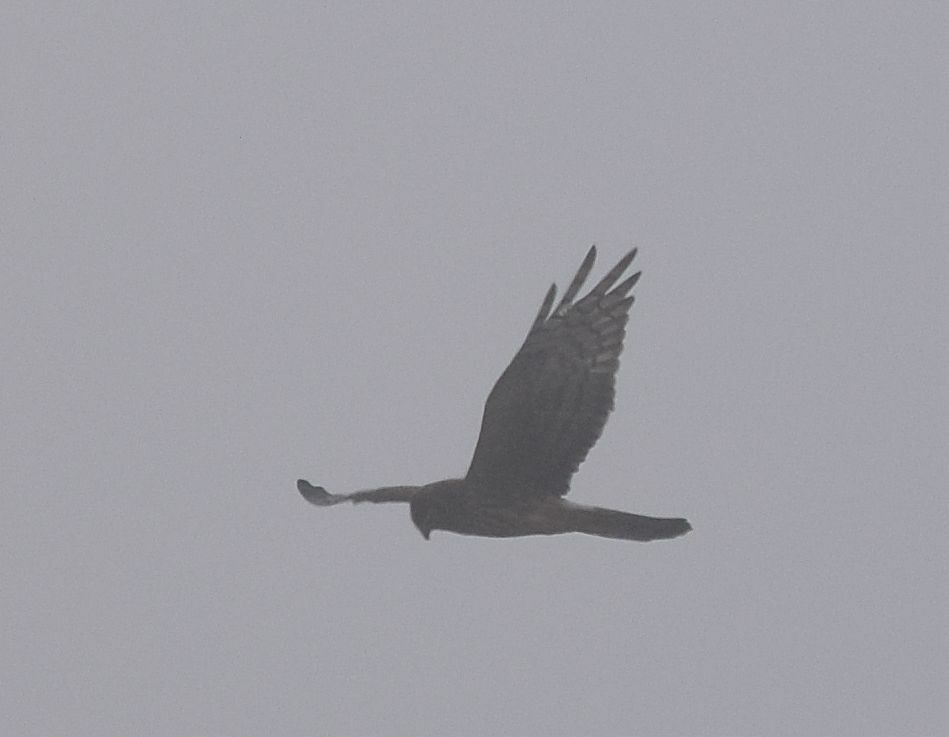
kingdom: Animalia
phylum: Chordata
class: Aves
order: Accipitriformes
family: Accipitridae
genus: Circus
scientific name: Circus cyaneus
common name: Hen harrier
